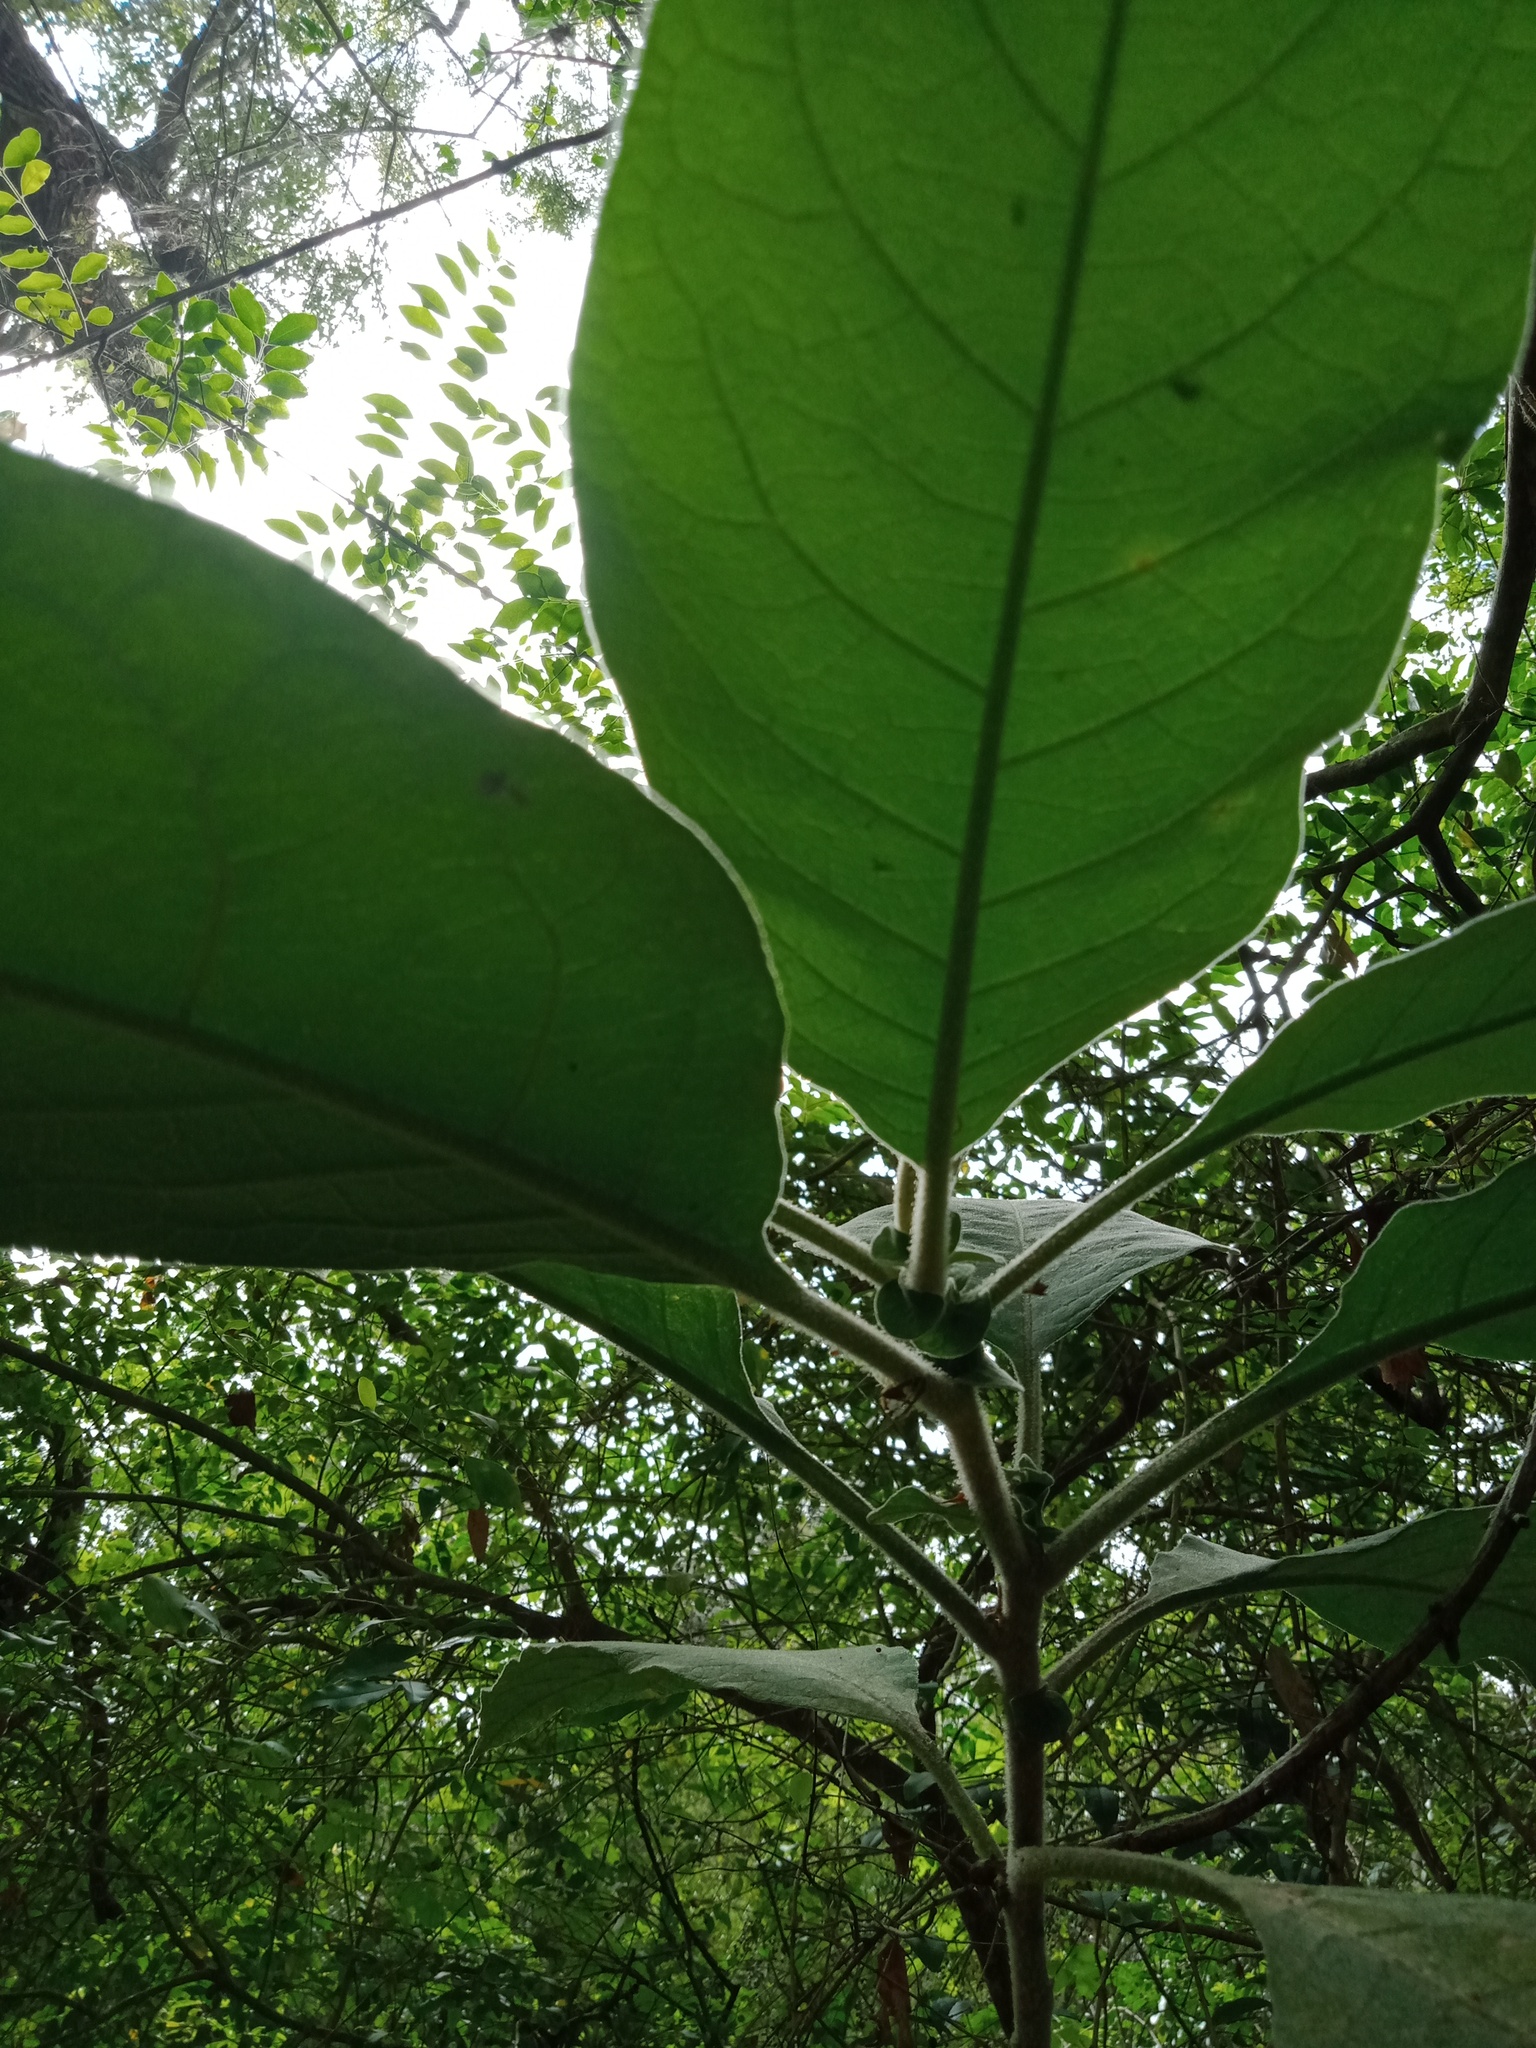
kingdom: Animalia
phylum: Arthropoda
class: Insecta
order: Hemiptera
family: Ricaniidae
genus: Scolypopa
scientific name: Scolypopa australis
